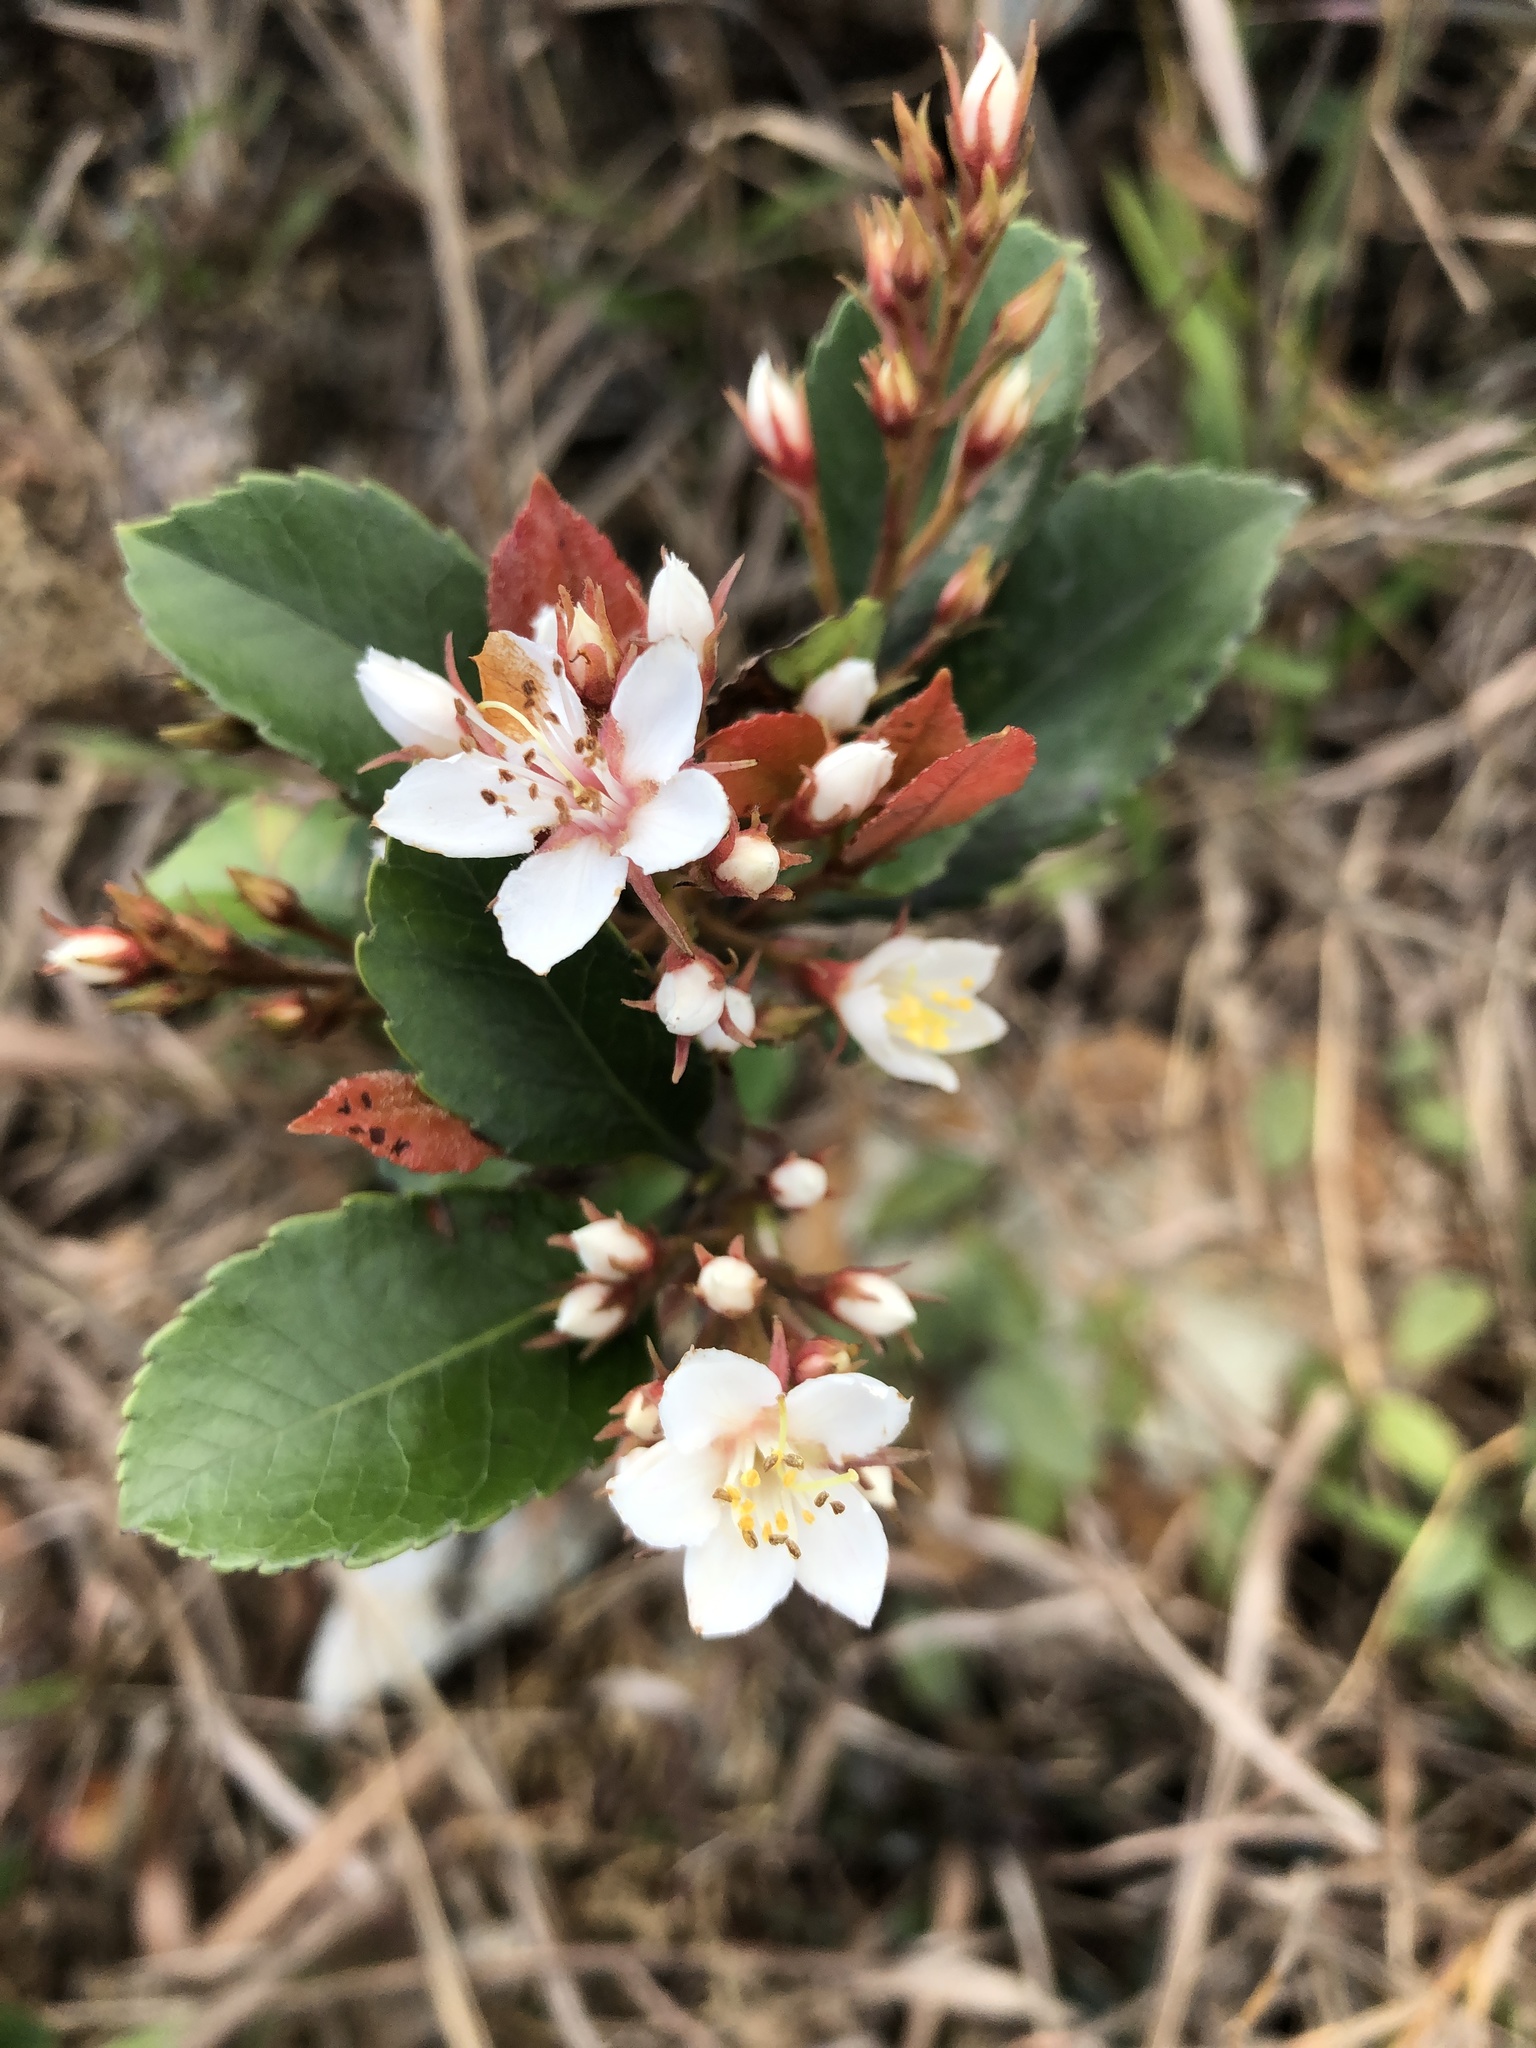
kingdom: Plantae
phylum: Tracheophyta
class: Magnoliopsida
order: Rosales
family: Rosaceae
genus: Rhaphiolepis
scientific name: Rhaphiolepis indica
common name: India-hawthorn
